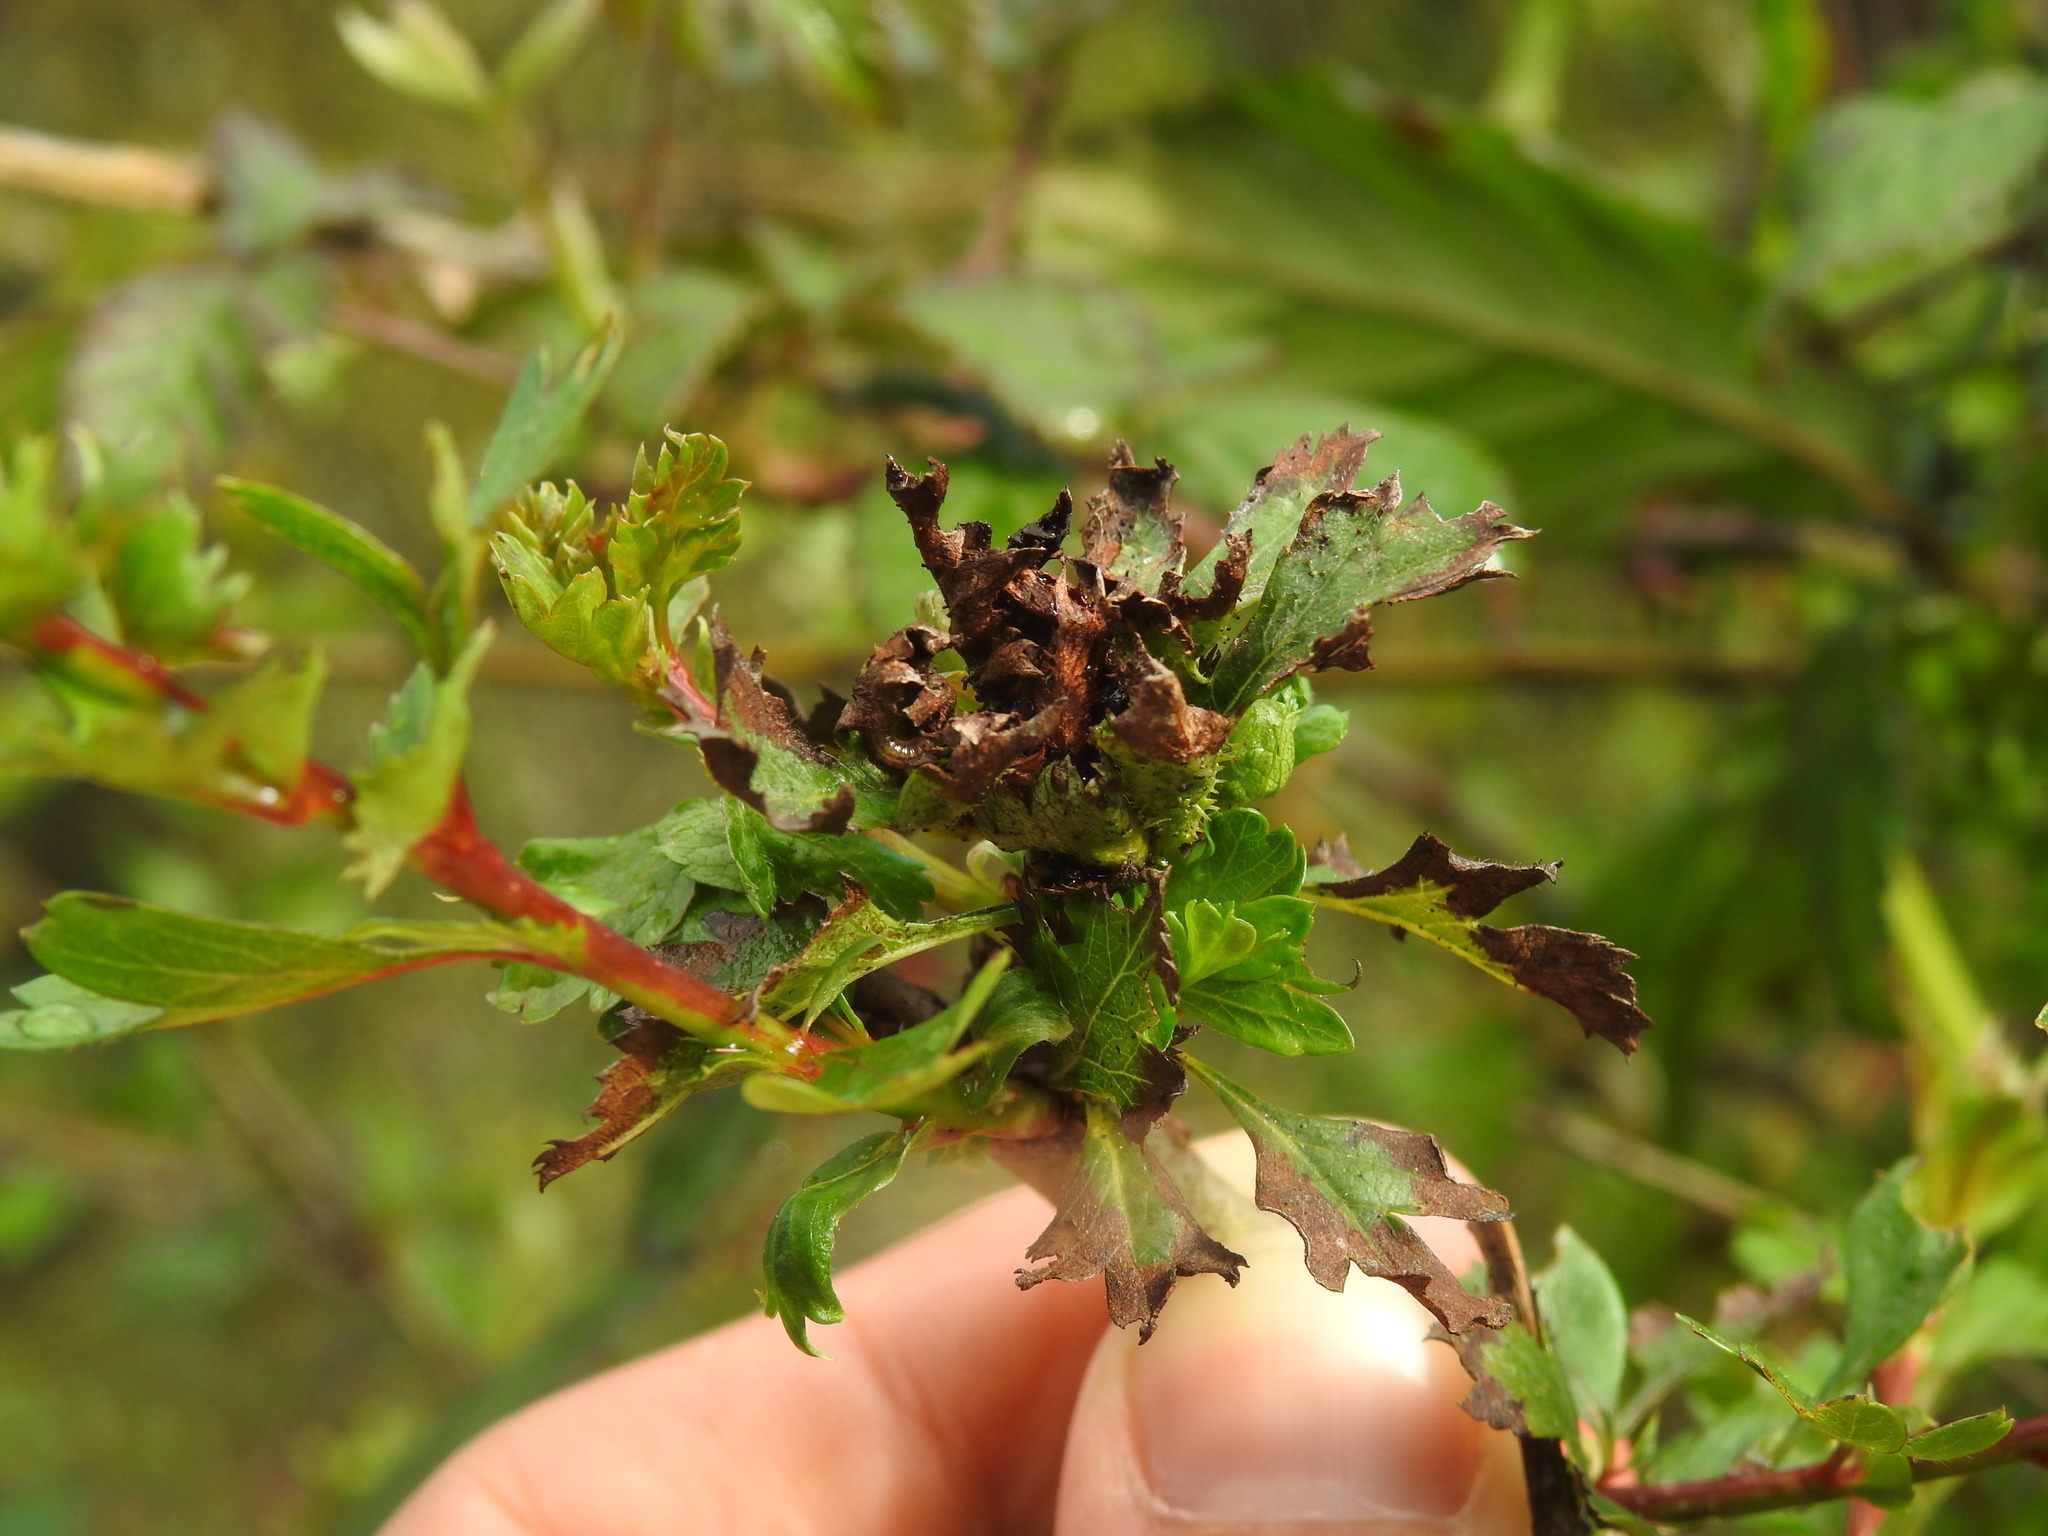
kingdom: Animalia
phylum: Arthropoda
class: Insecta
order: Diptera
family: Cecidomyiidae
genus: Dasineura
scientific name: Dasineura crataegi
